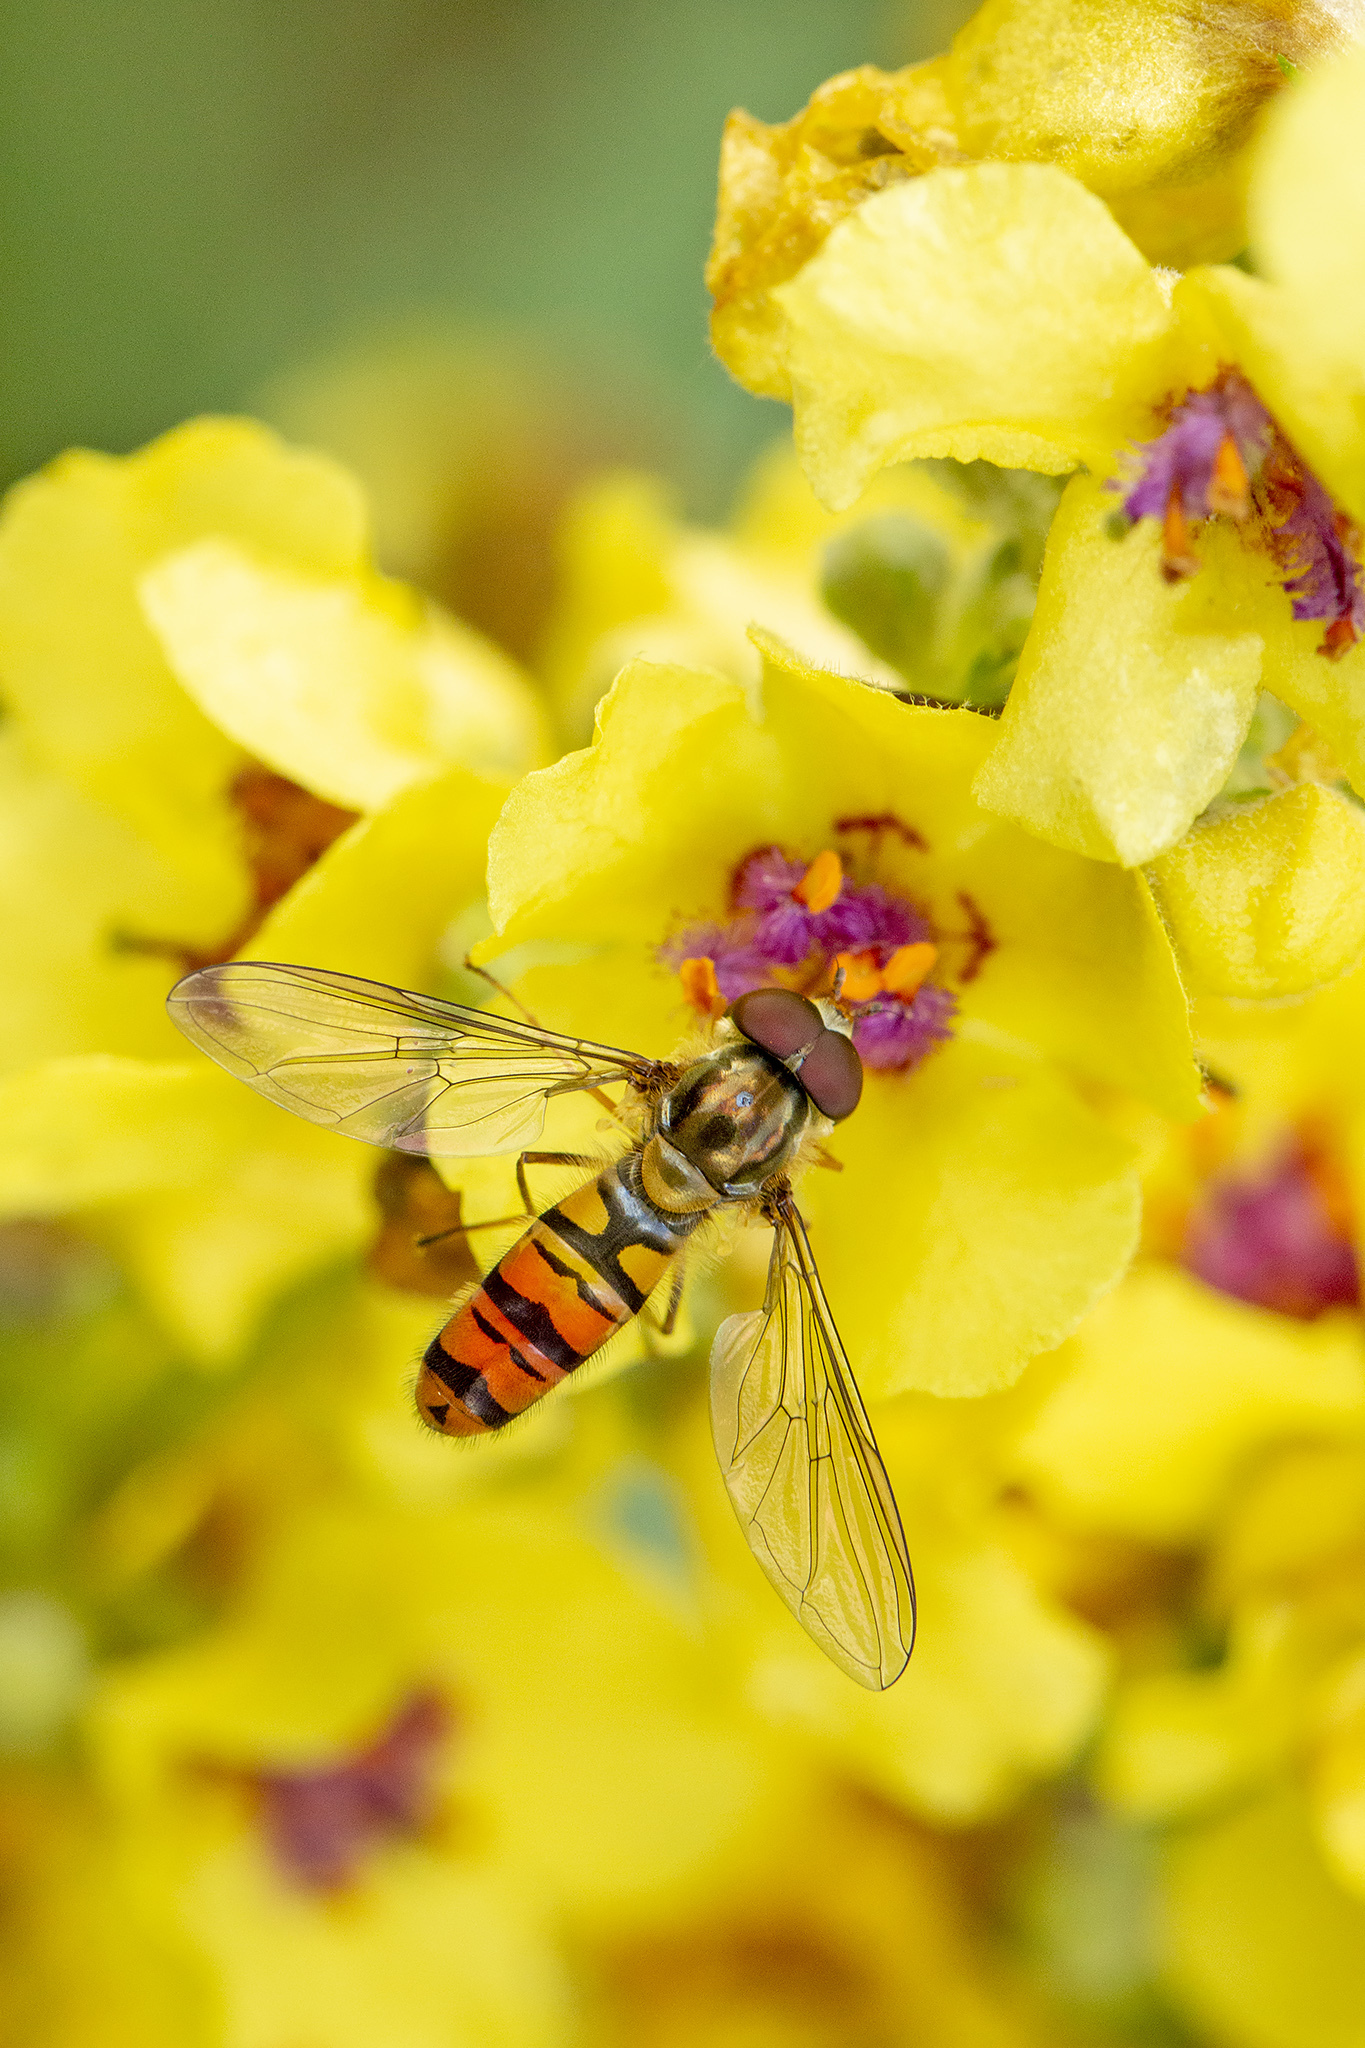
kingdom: Animalia
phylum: Arthropoda
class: Insecta
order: Diptera
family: Syrphidae
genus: Episyrphus
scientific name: Episyrphus balteatus
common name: Marmalade hoverfly
